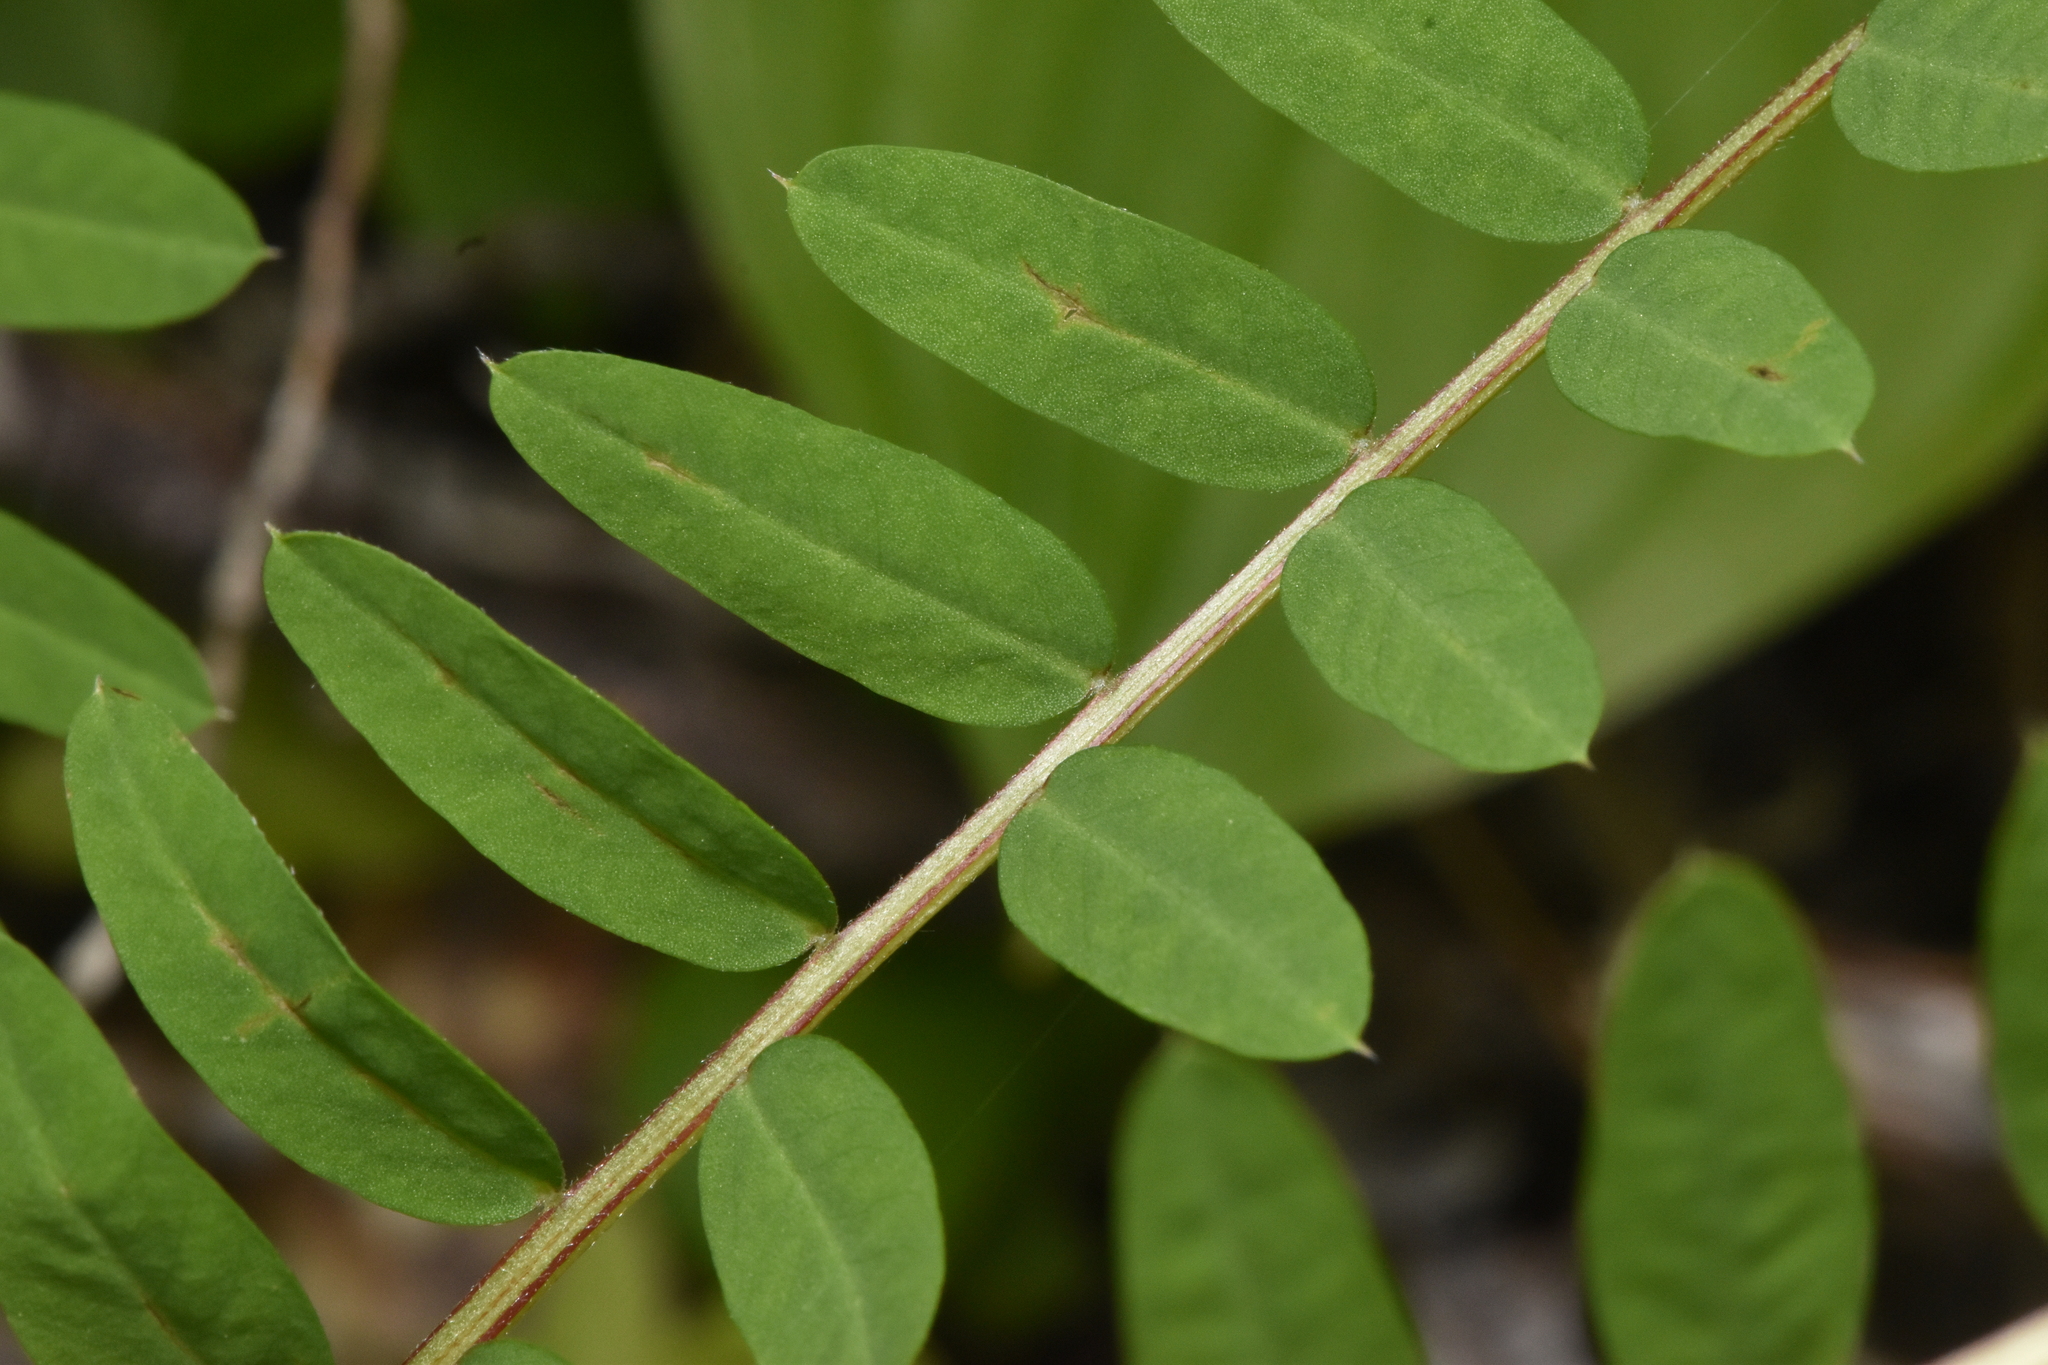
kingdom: Plantae
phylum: Tracheophyta
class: Magnoliopsida
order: Fabales
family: Fabaceae
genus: Vicia
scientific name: Vicia
